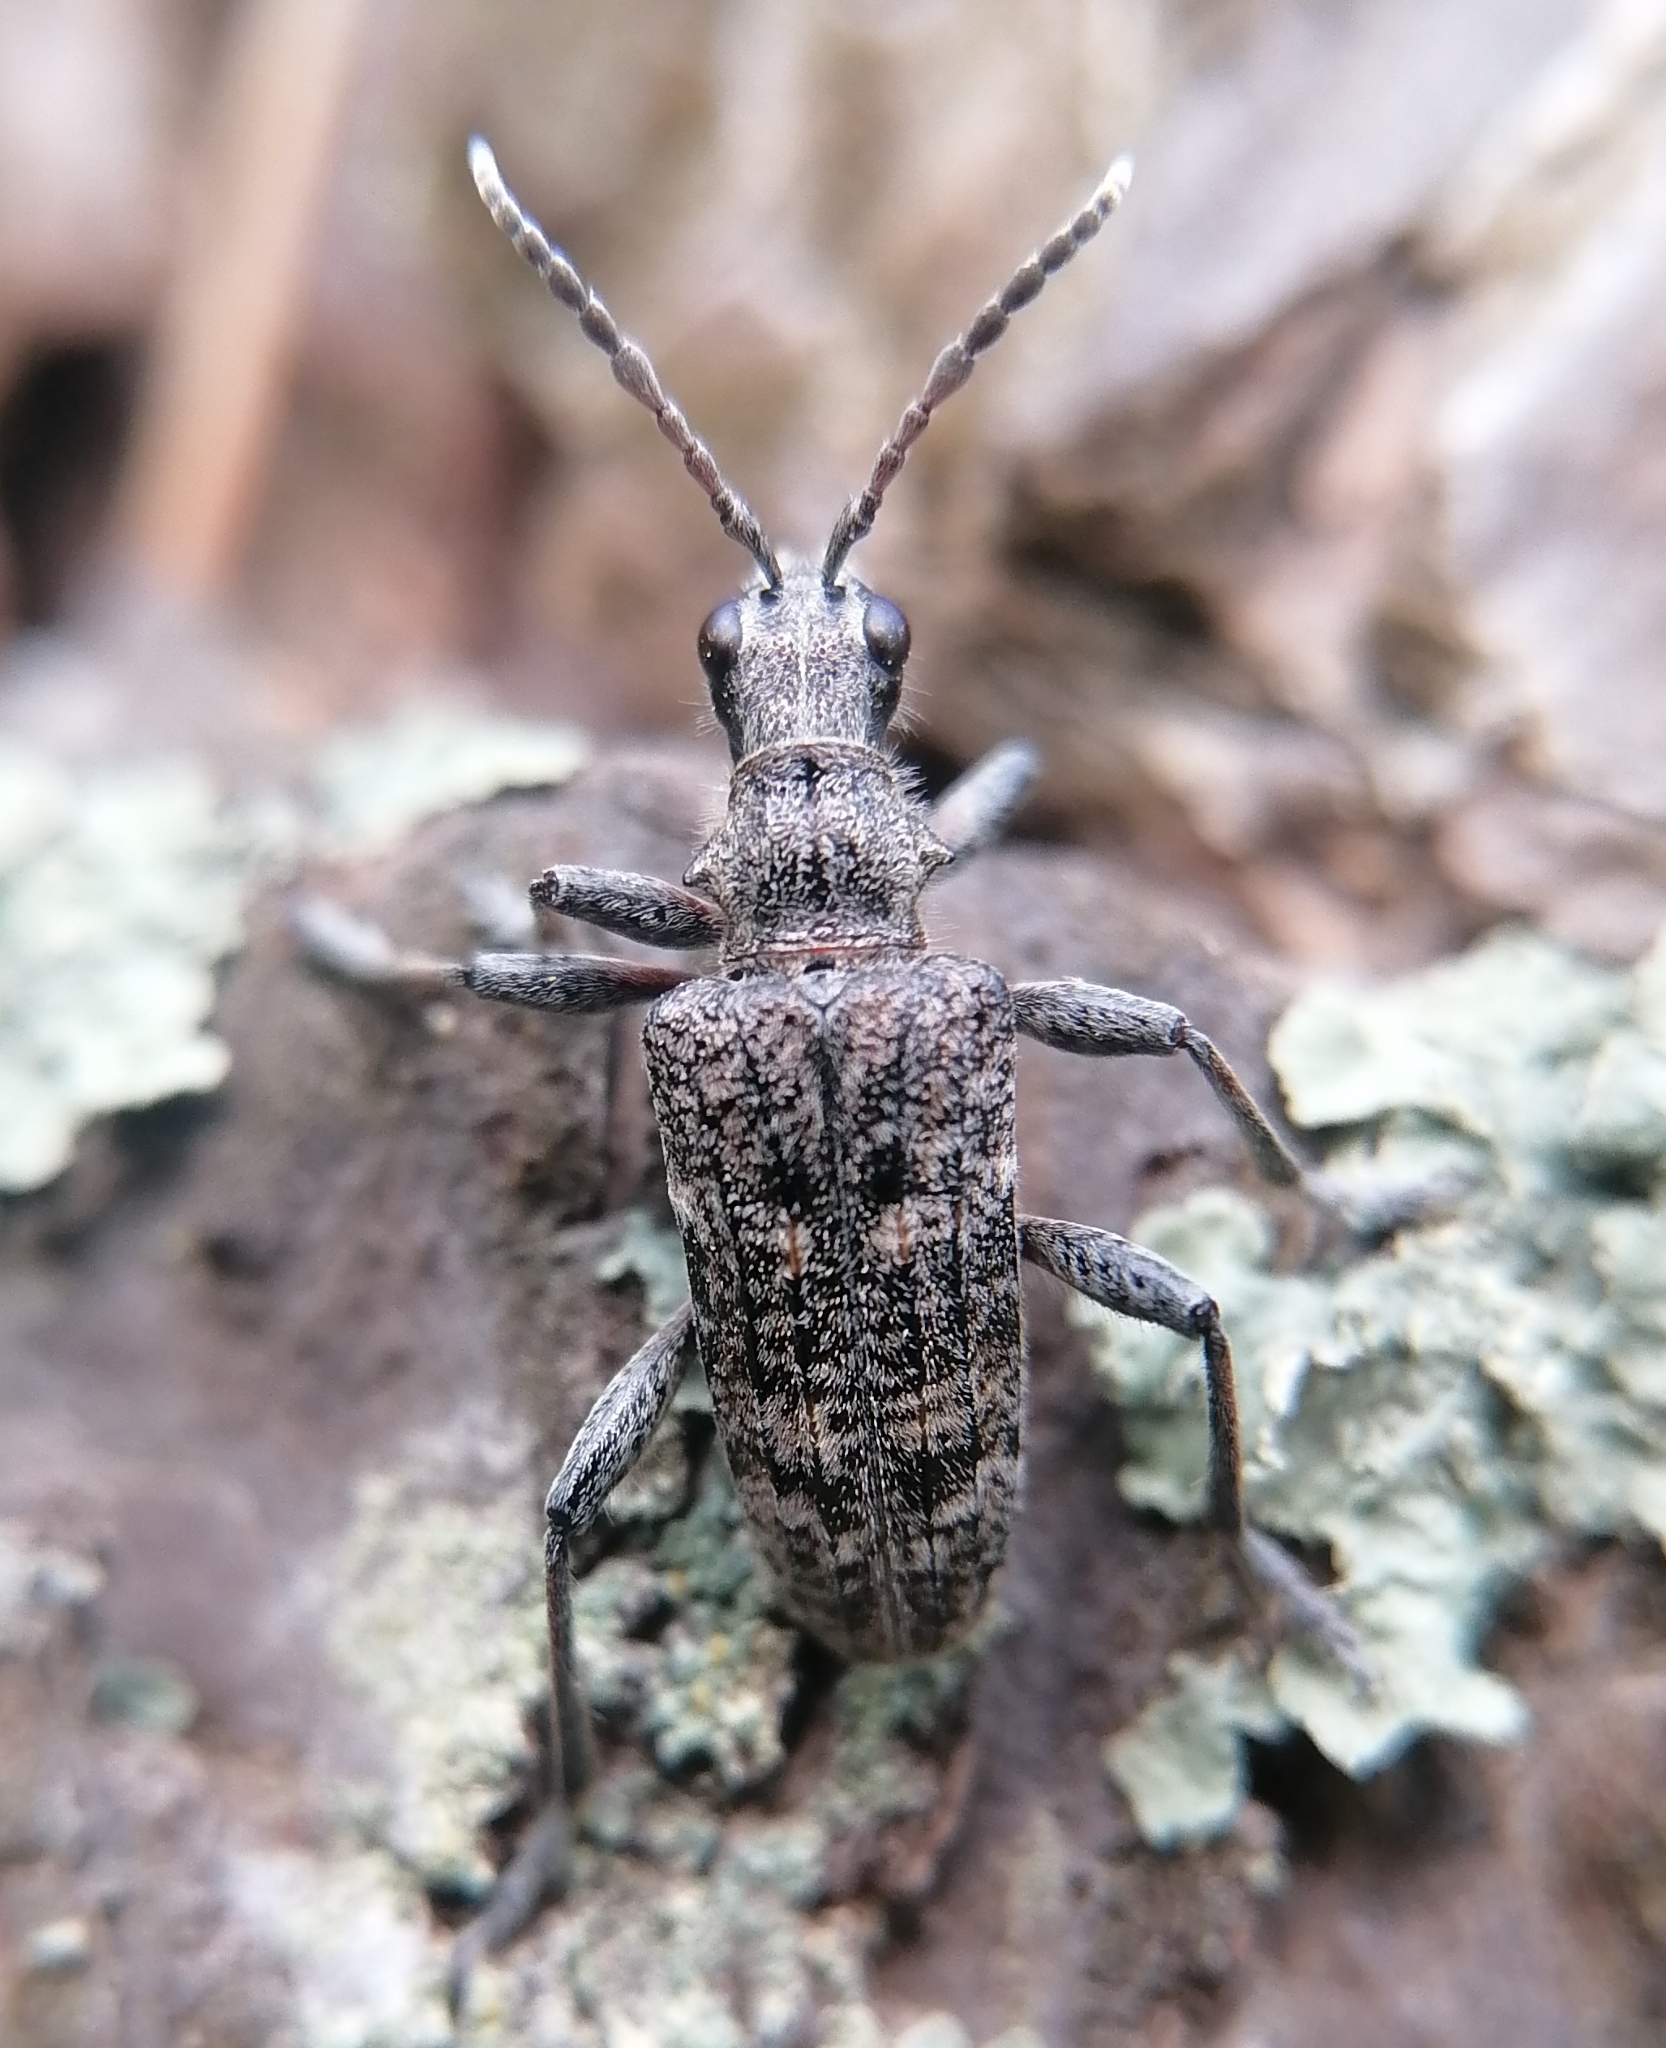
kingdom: Animalia
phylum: Arthropoda
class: Insecta
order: Coleoptera
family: Cerambycidae
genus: Rhagium
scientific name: Rhagium inquisitor
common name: Ribbed pine borer
